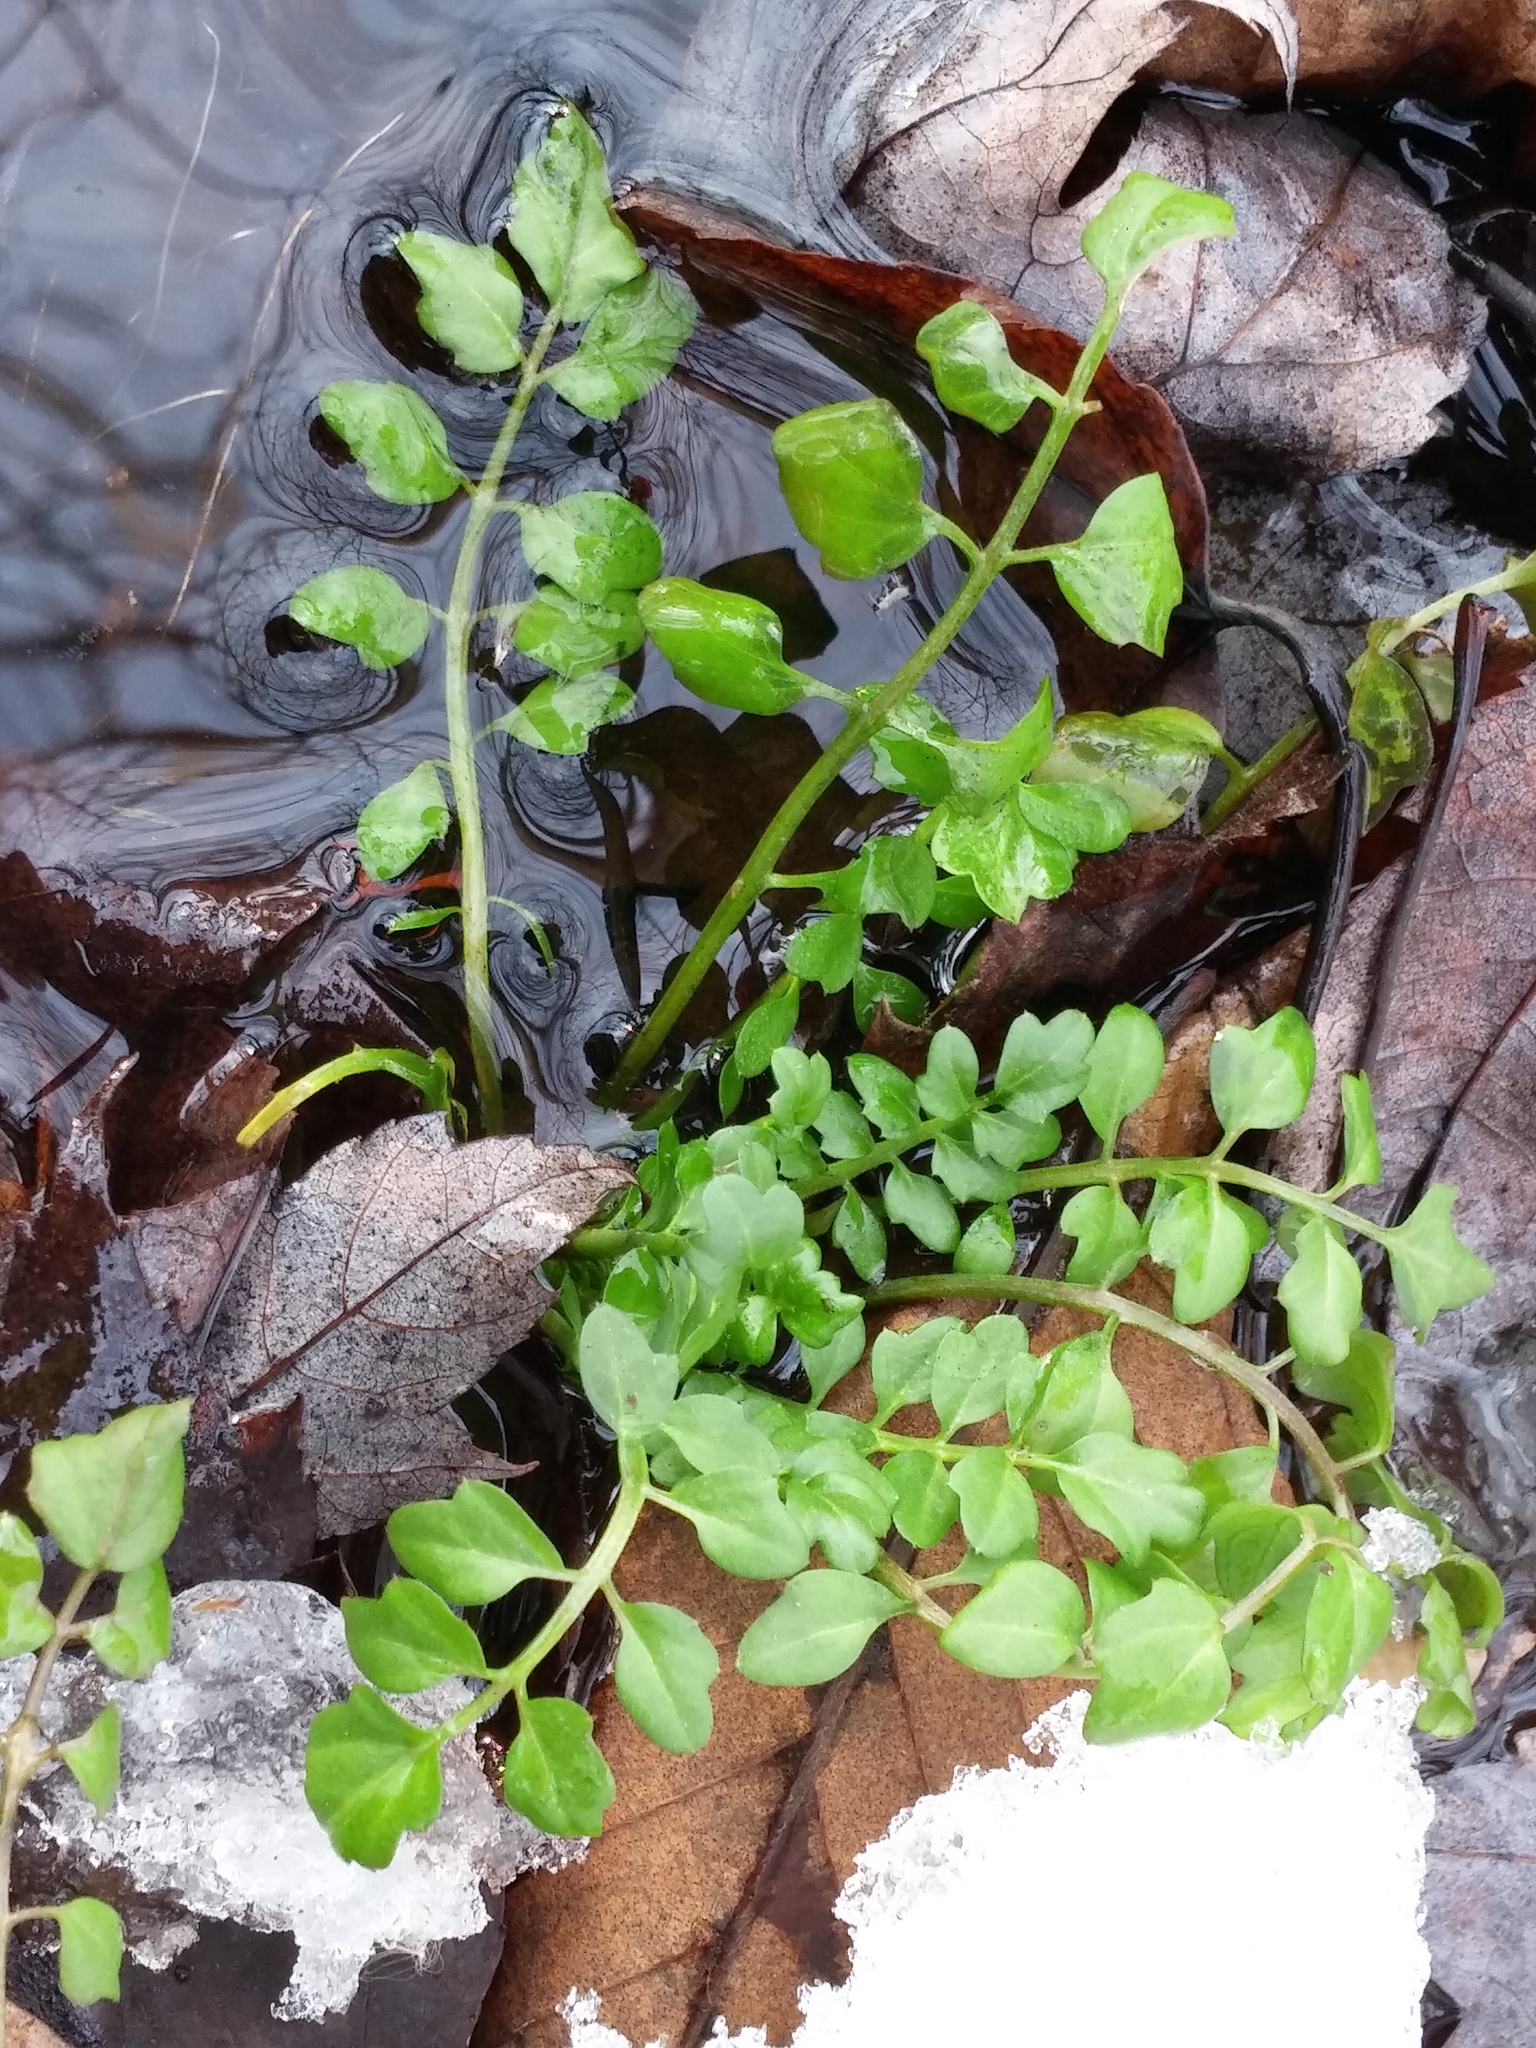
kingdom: Plantae
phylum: Tracheophyta
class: Magnoliopsida
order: Brassicales
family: Brassicaceae
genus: Nasturtium
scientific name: Nasturtium officinale
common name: Watercress
